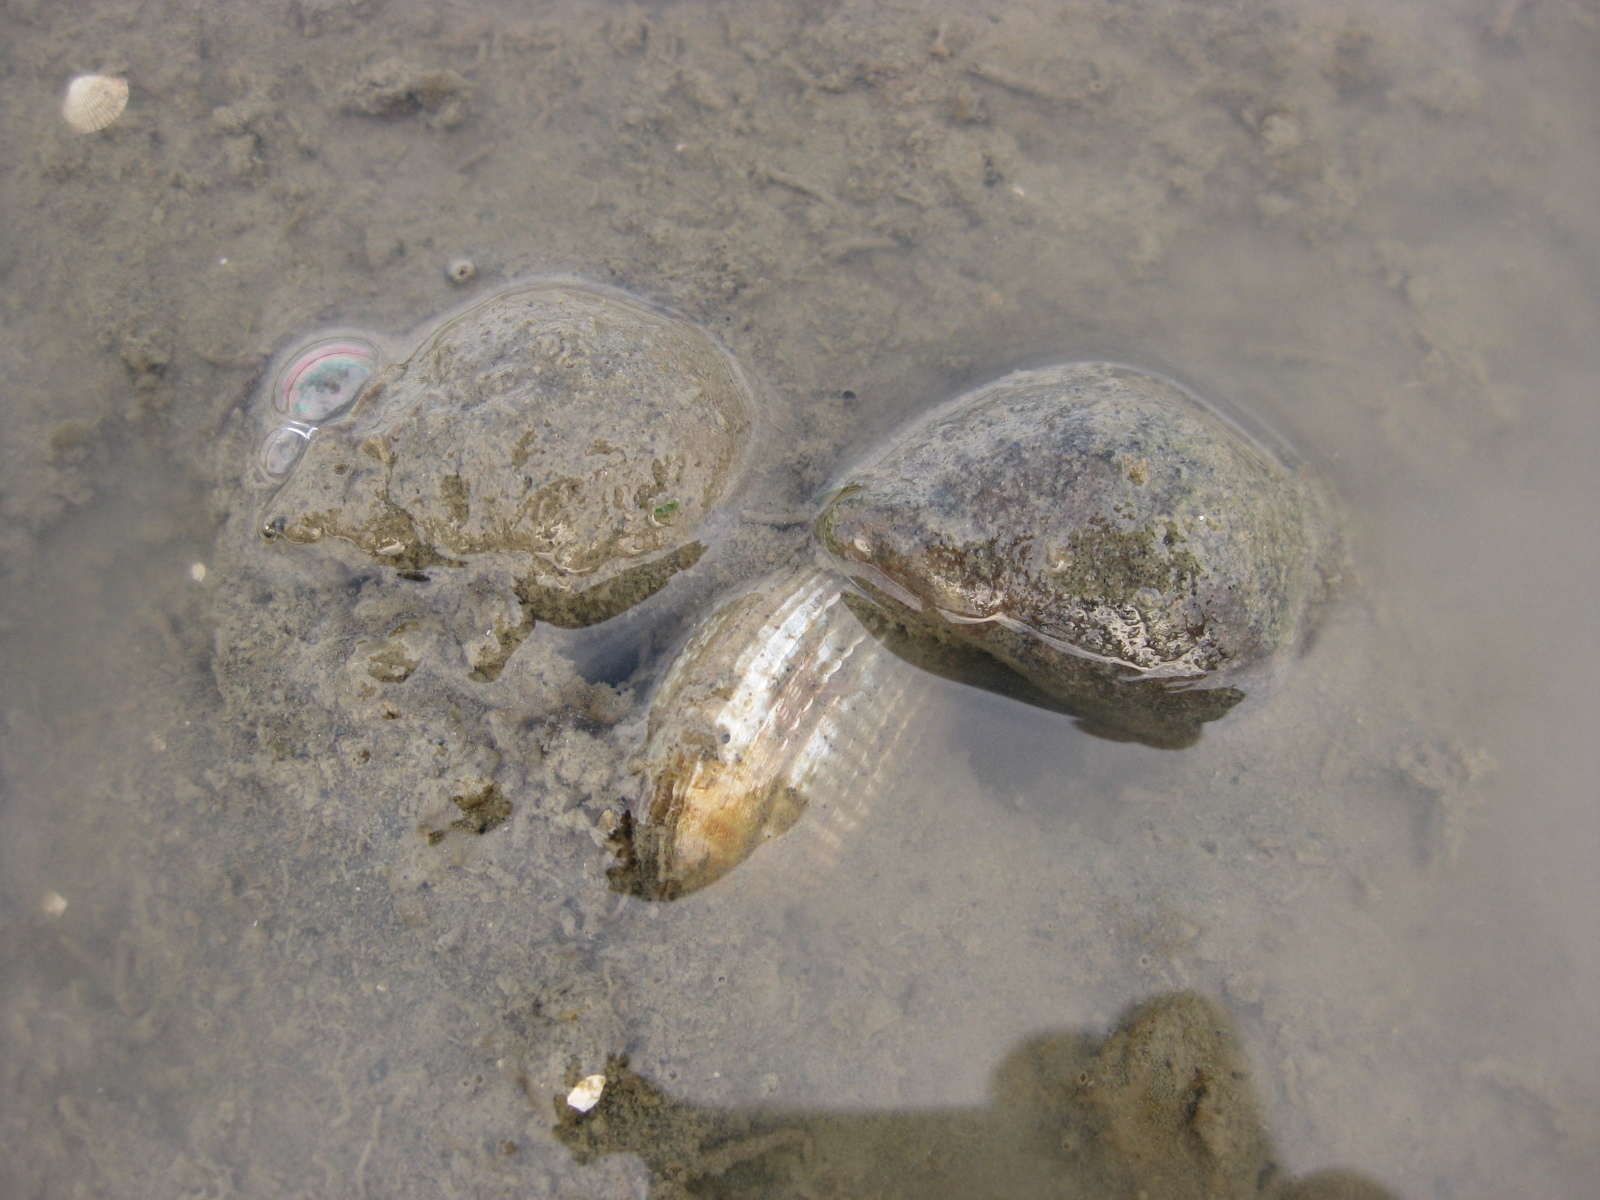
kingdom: Animalia
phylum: Mollusca
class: Gastropoda
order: Neogastropoda
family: Cominellidae
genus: Cominella
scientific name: Cominella adspersa
